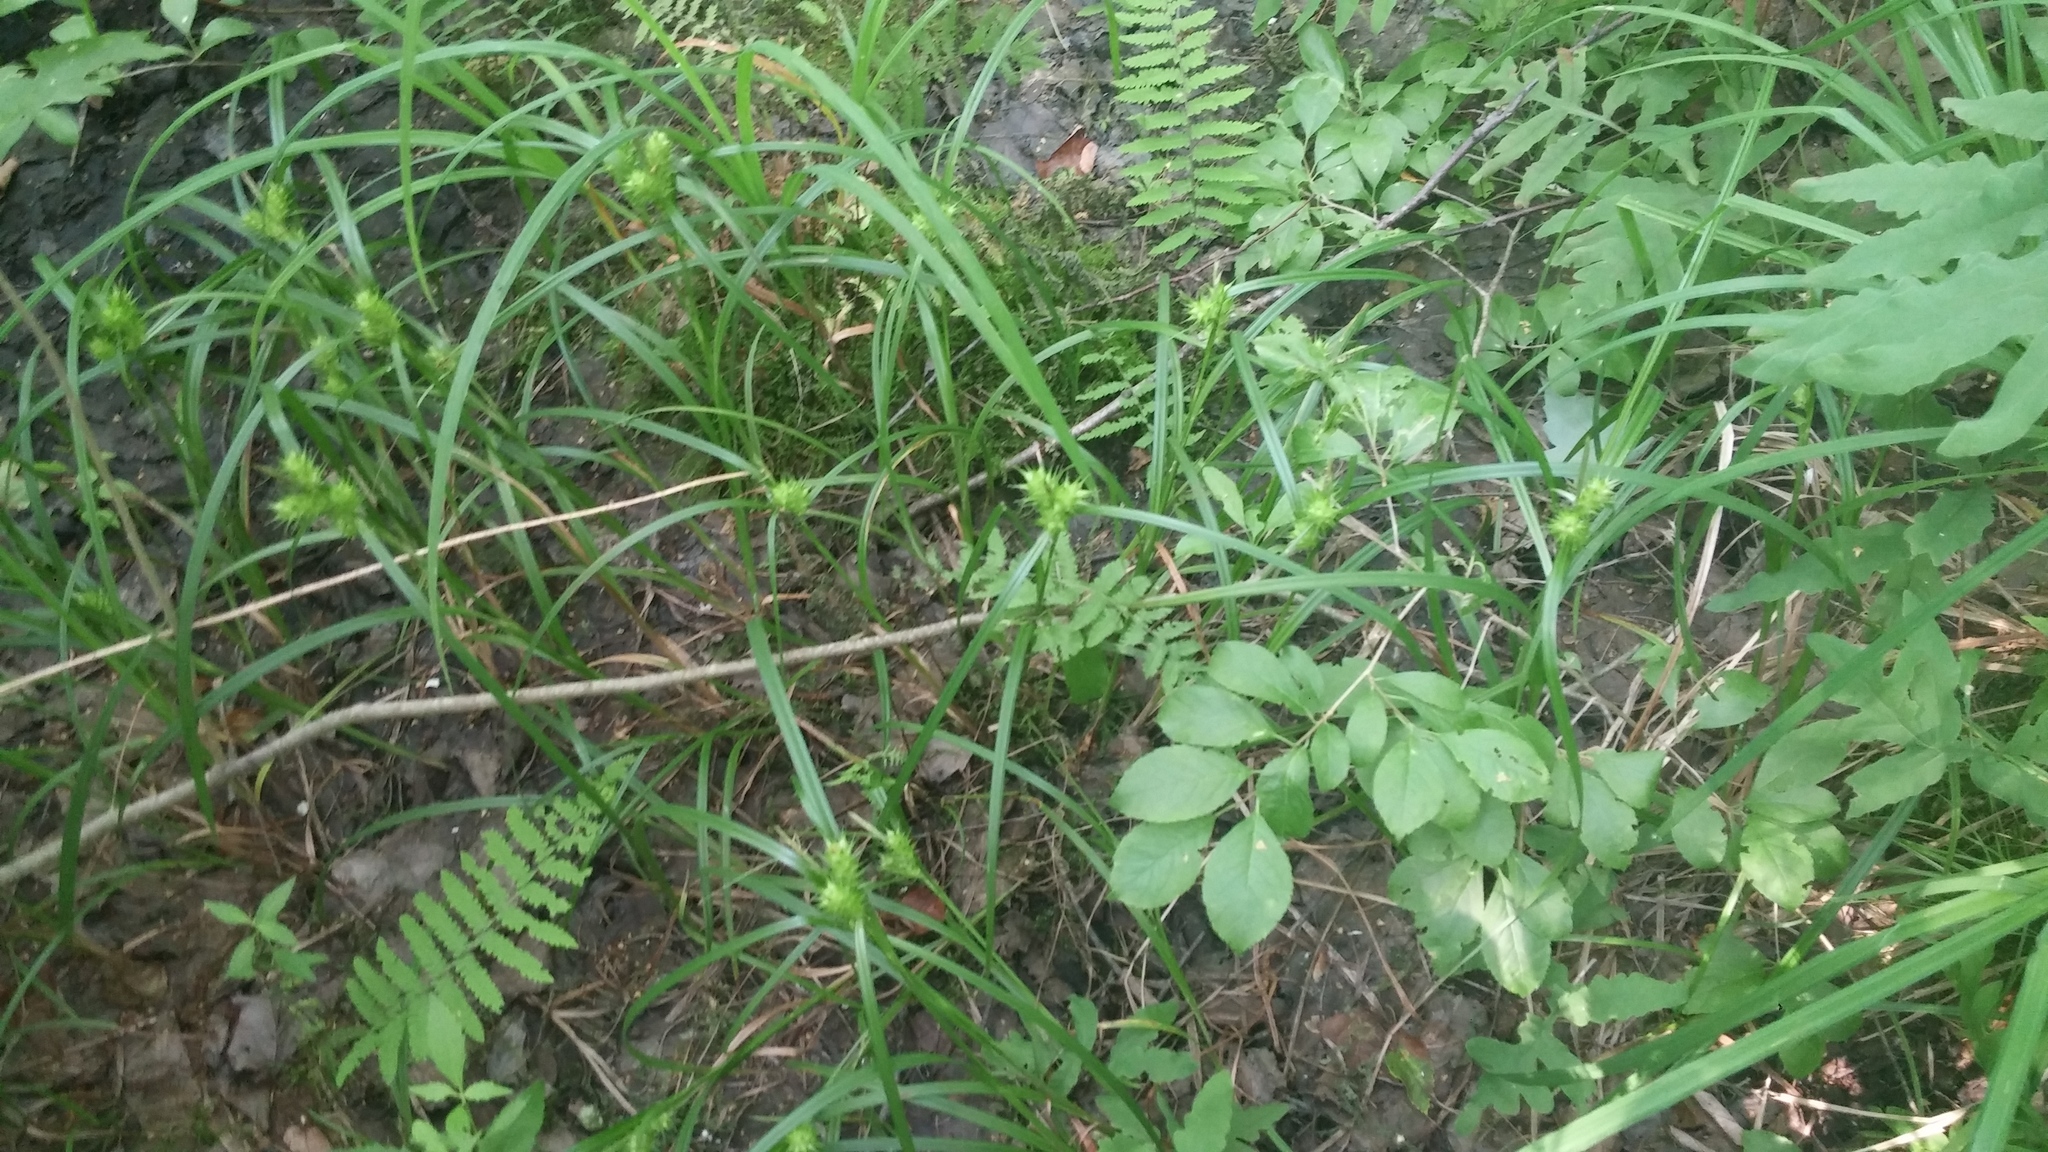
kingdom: Plantae
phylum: Tracheophyta
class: Liliopsida
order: Poales
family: Cyperaceae
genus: Carex
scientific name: Carex lupulina
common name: Hop sedge
